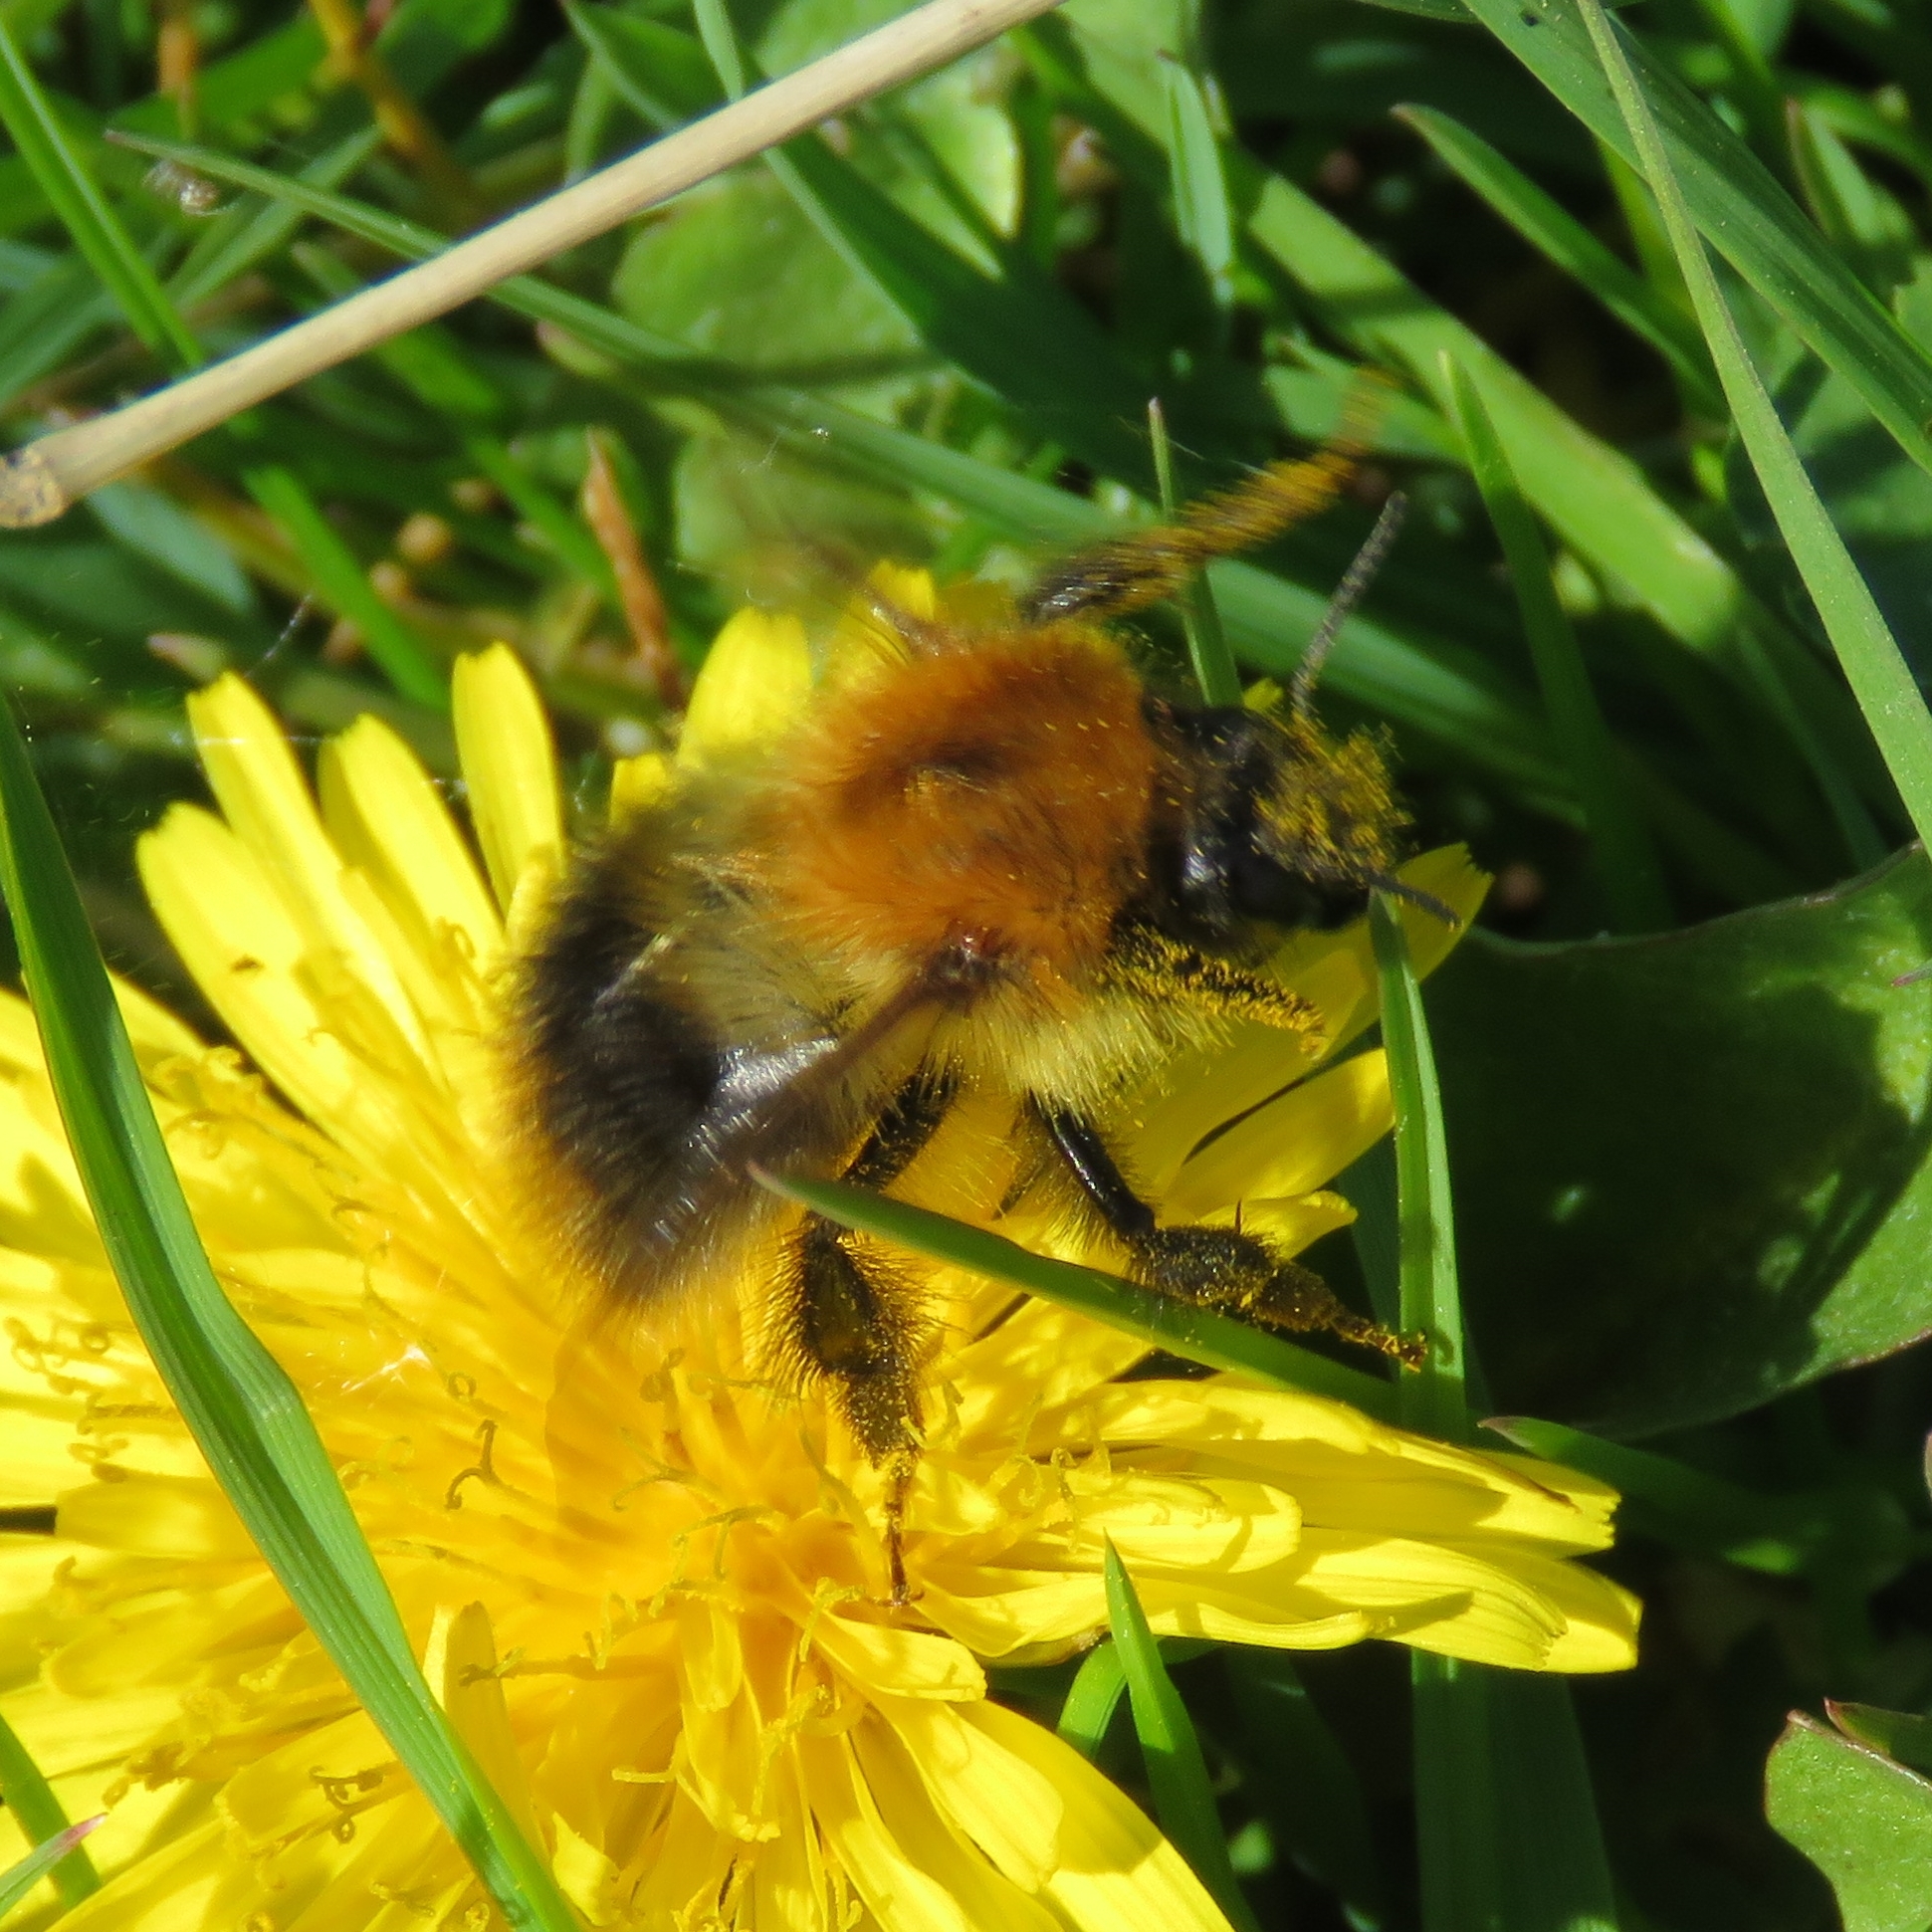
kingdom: Animalia
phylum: Arthropoda
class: Insecta
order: Hymenoptera
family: Apidae
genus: Bombus
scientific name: Bombus pascuorum
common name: Common carder bee
